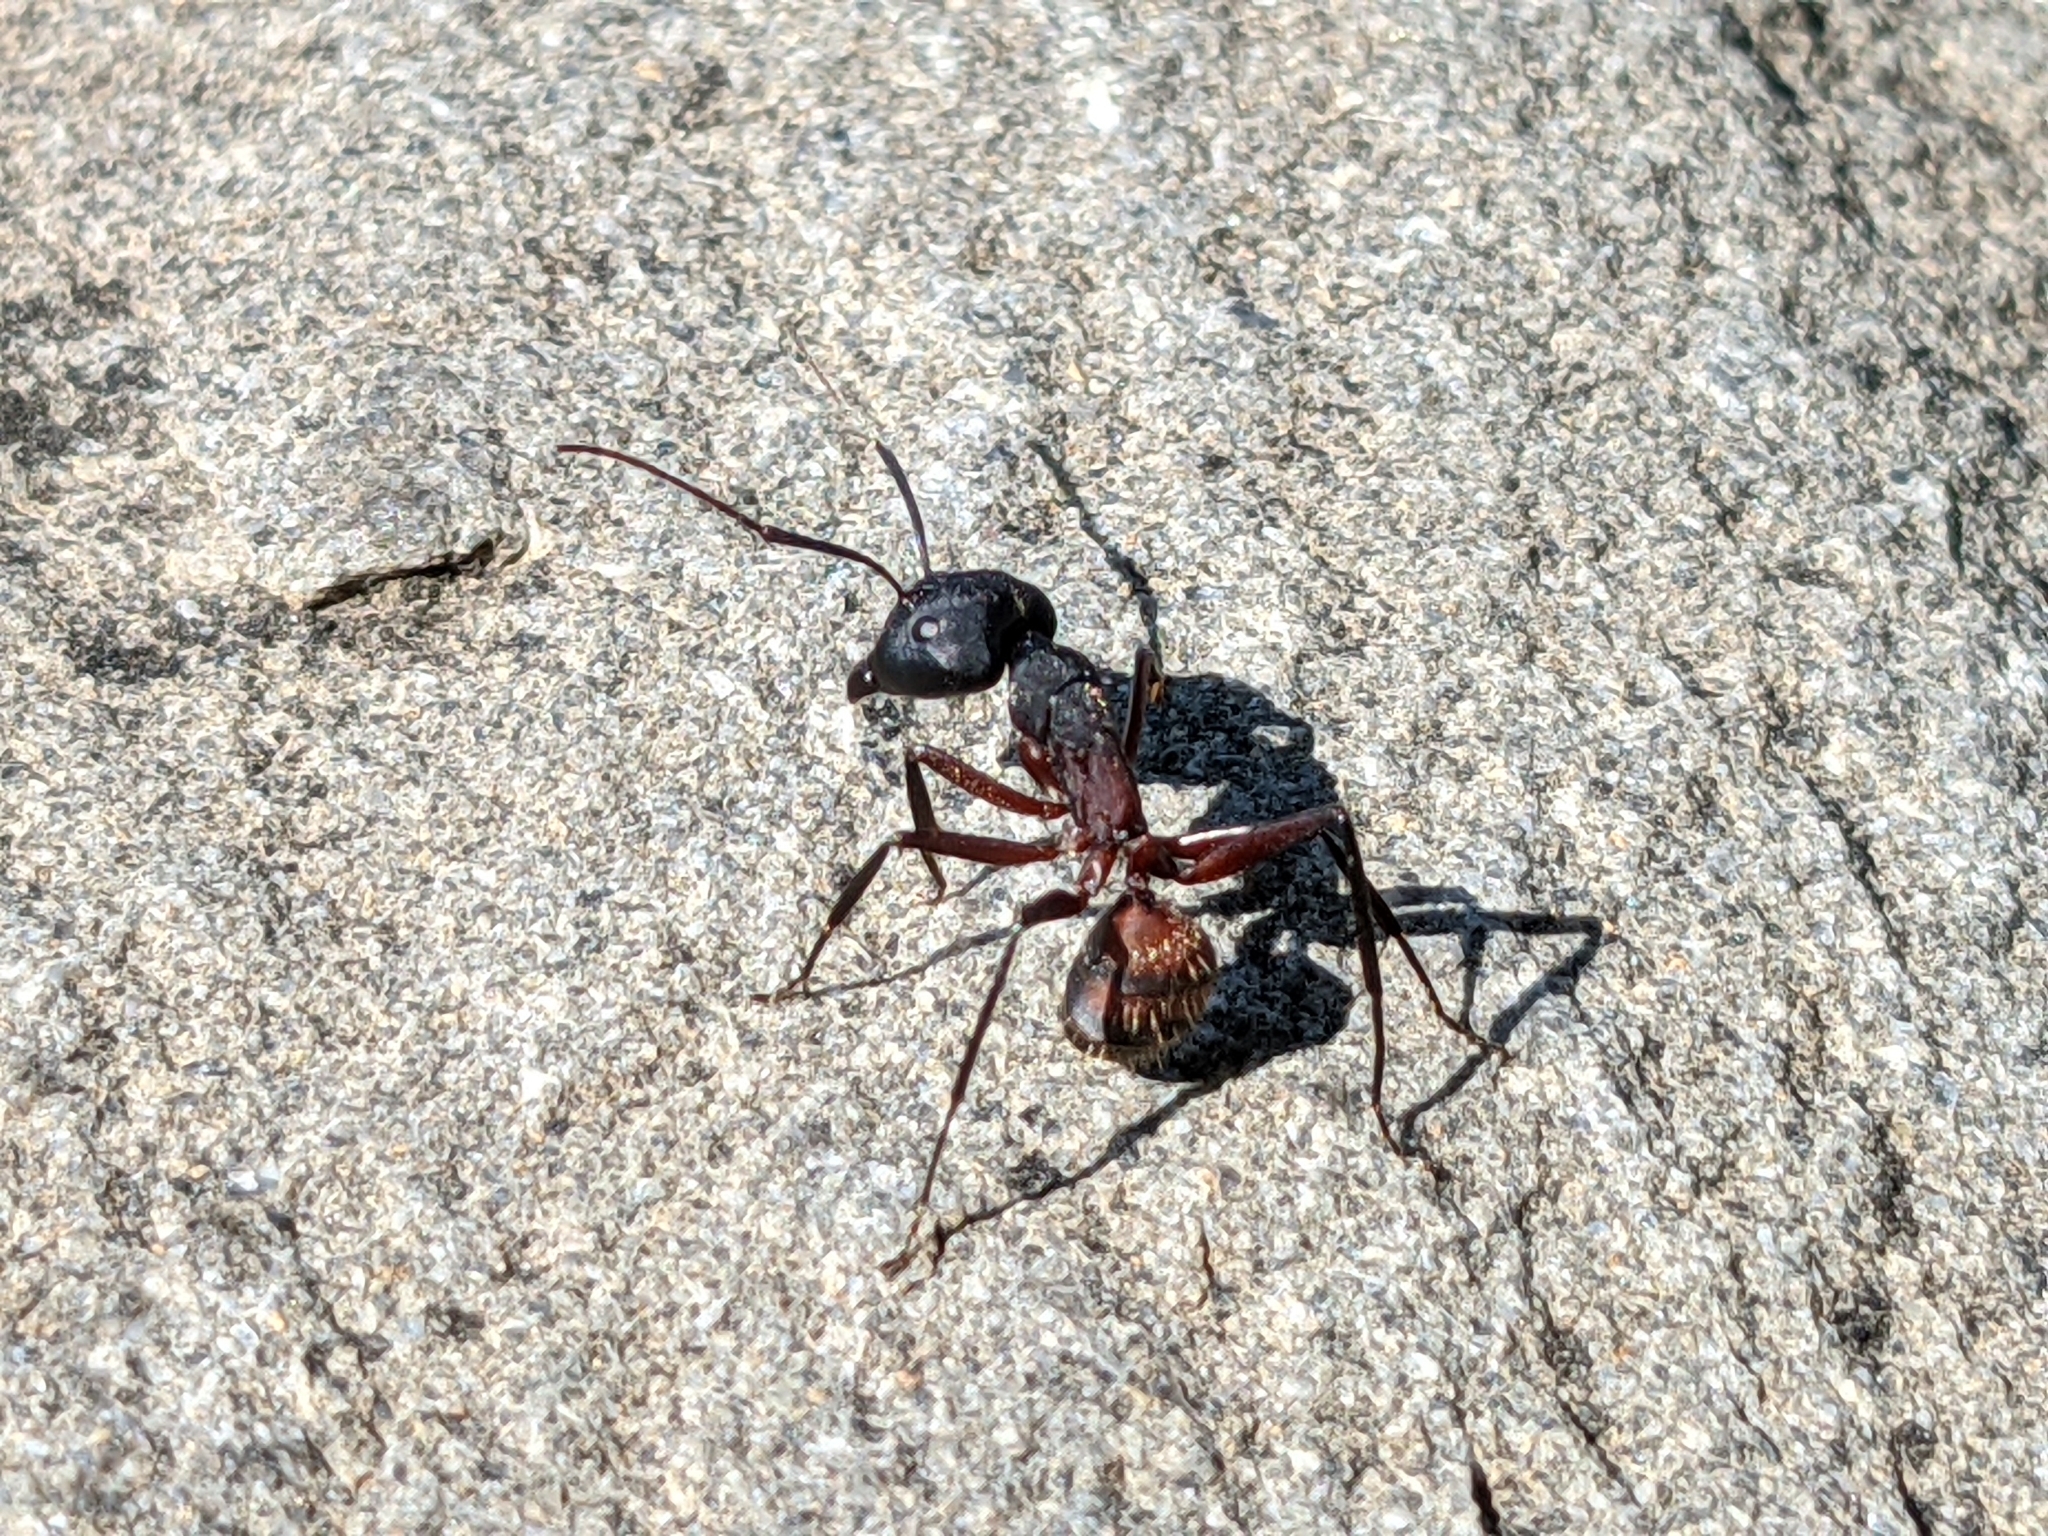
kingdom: Animalia
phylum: Arthropoda
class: Insecta
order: Hymenoptera
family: Formicidae
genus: Camponotus
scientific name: Camponotus cruentatus
